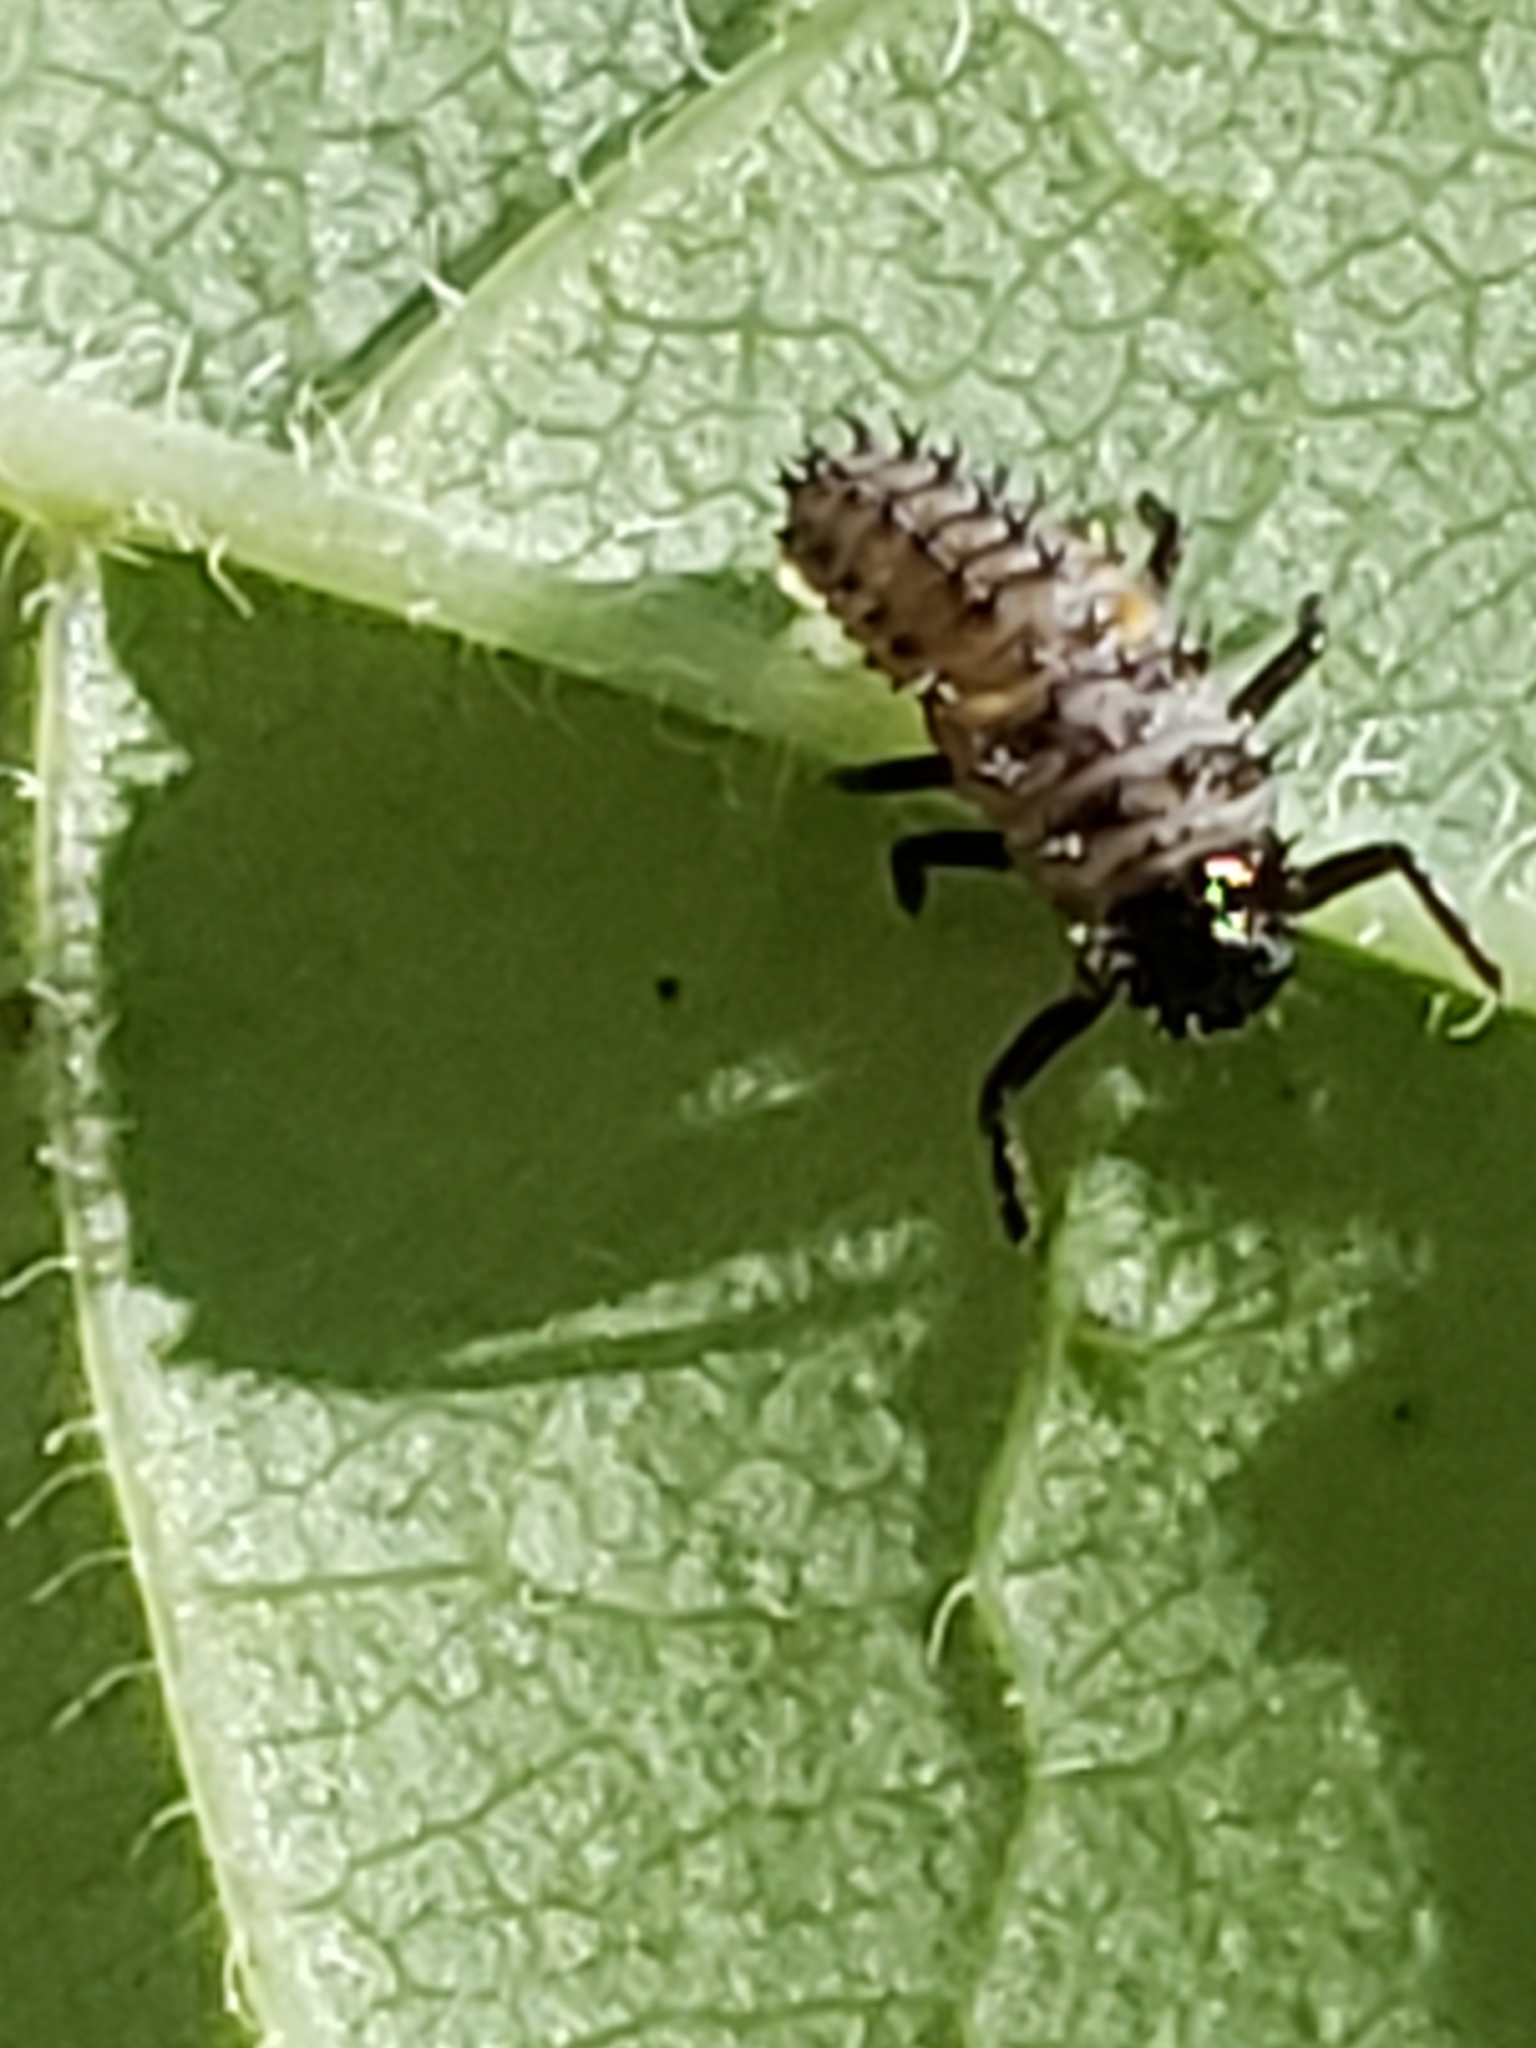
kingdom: Animalia
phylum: Arthropoda
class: Insecta
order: Coleoptera
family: Coccinellidae
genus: Harmonia
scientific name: Harmonia axyridis
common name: Harlequin ladybird
